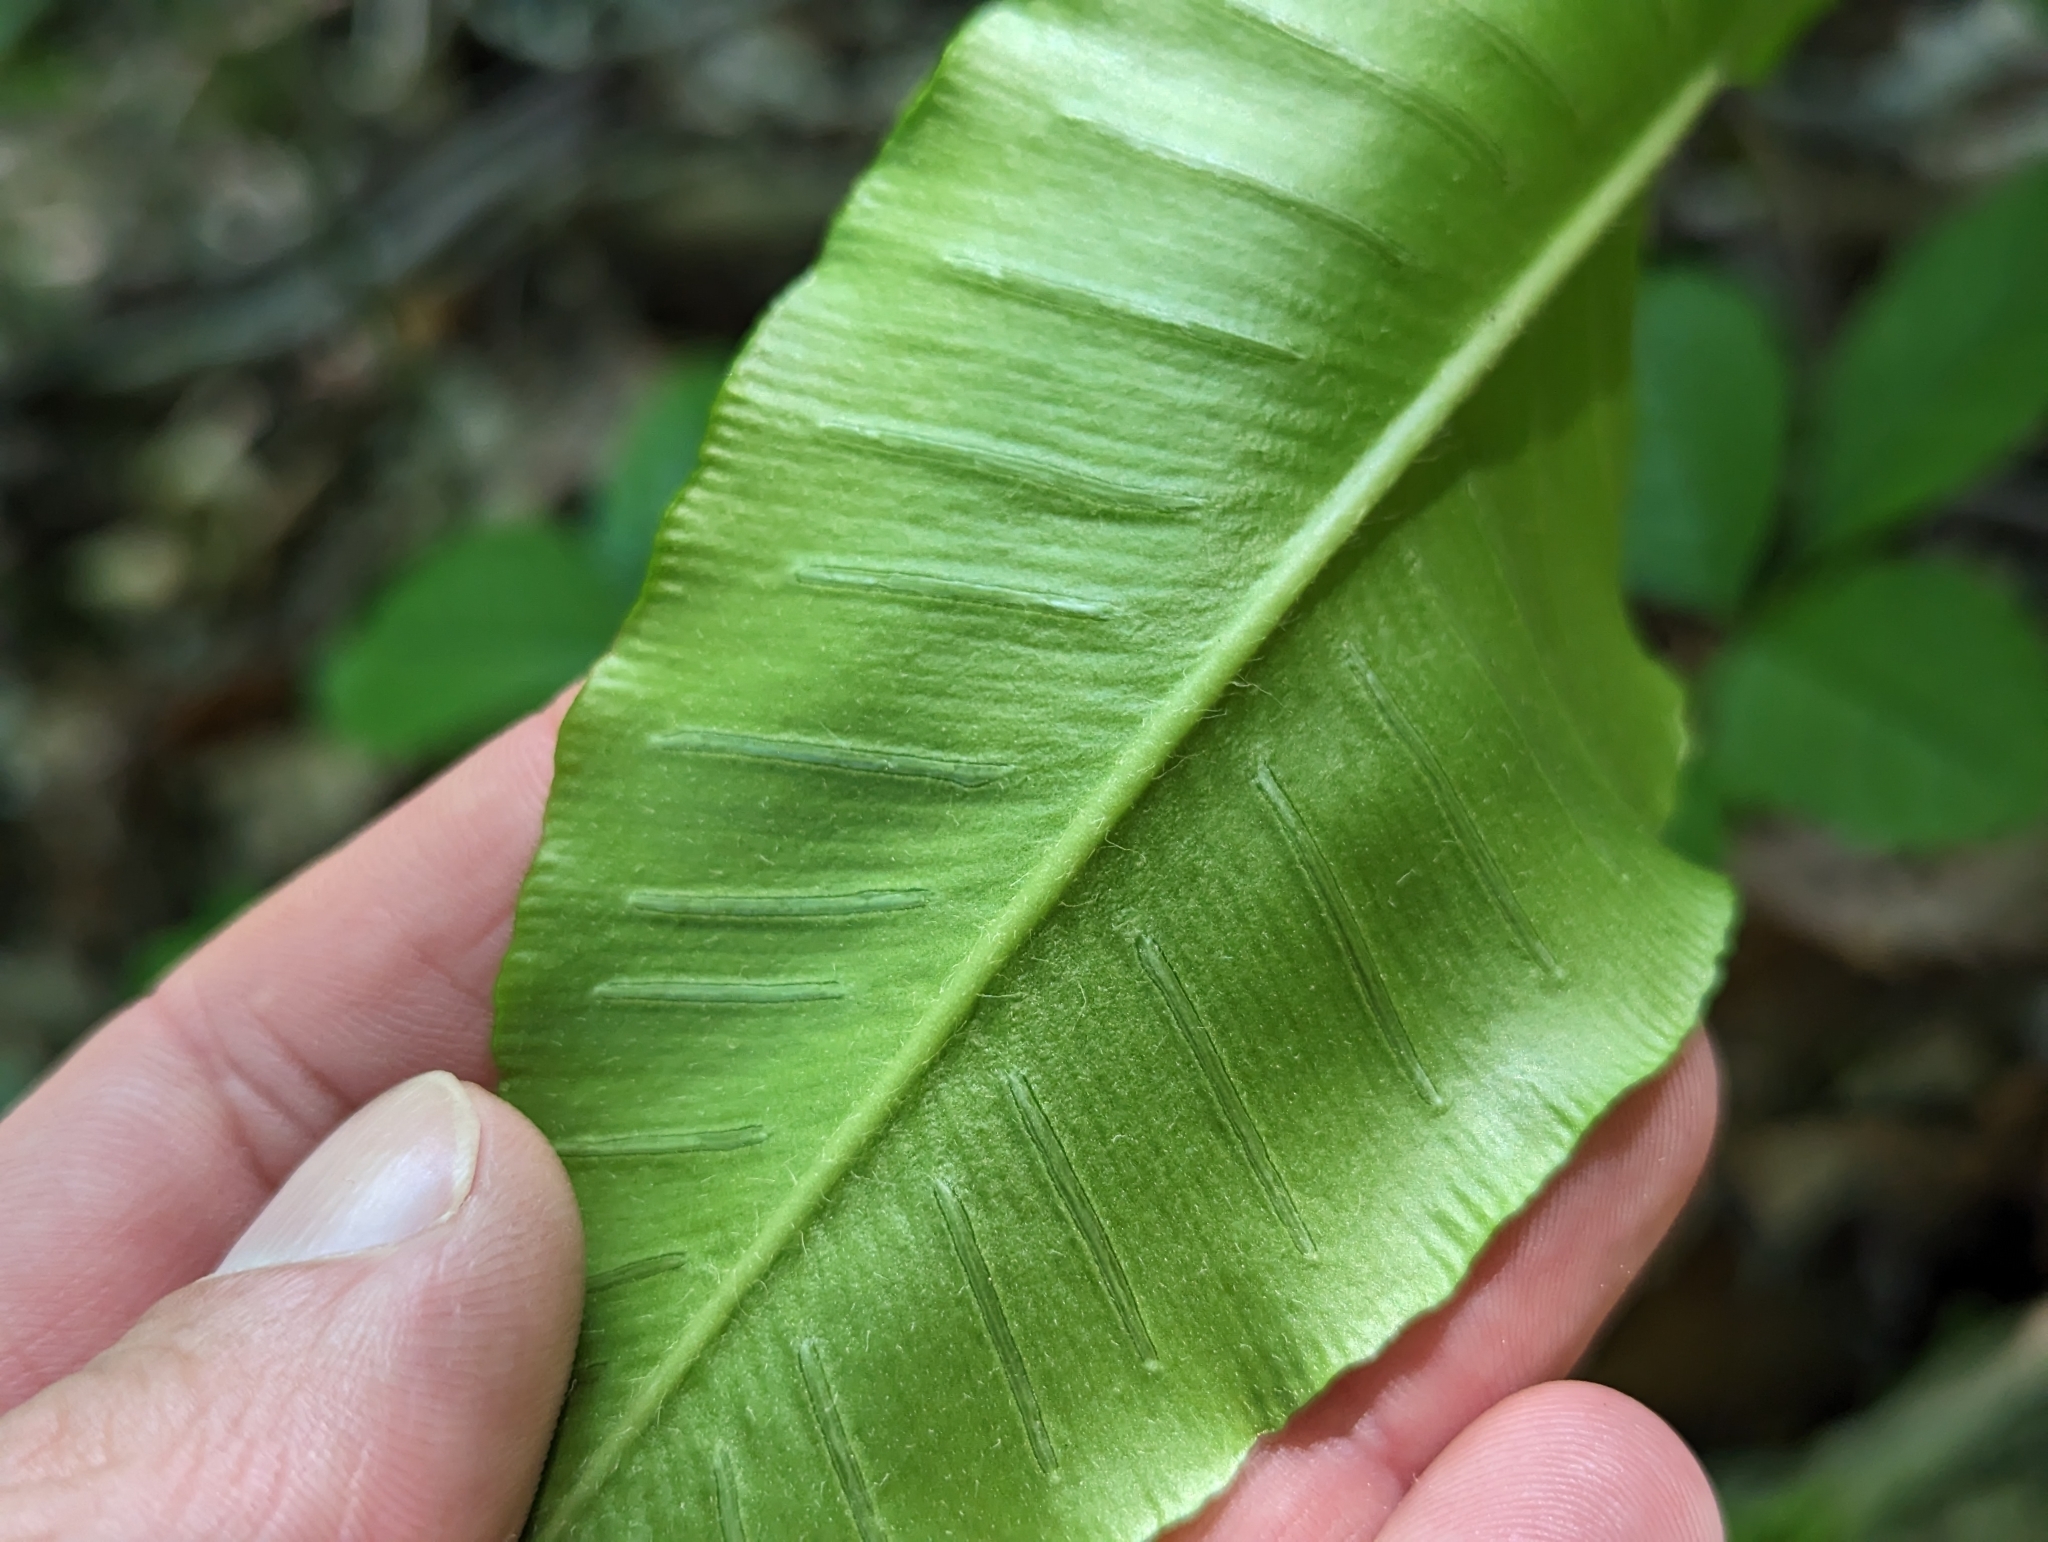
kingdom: Plantae
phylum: Tracheophyta
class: Polypodiopsida
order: Polypodiales
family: Aspleniaceae
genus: Asplenium
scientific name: Asplenium scolopendrium
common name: Hart's-tongue fern
